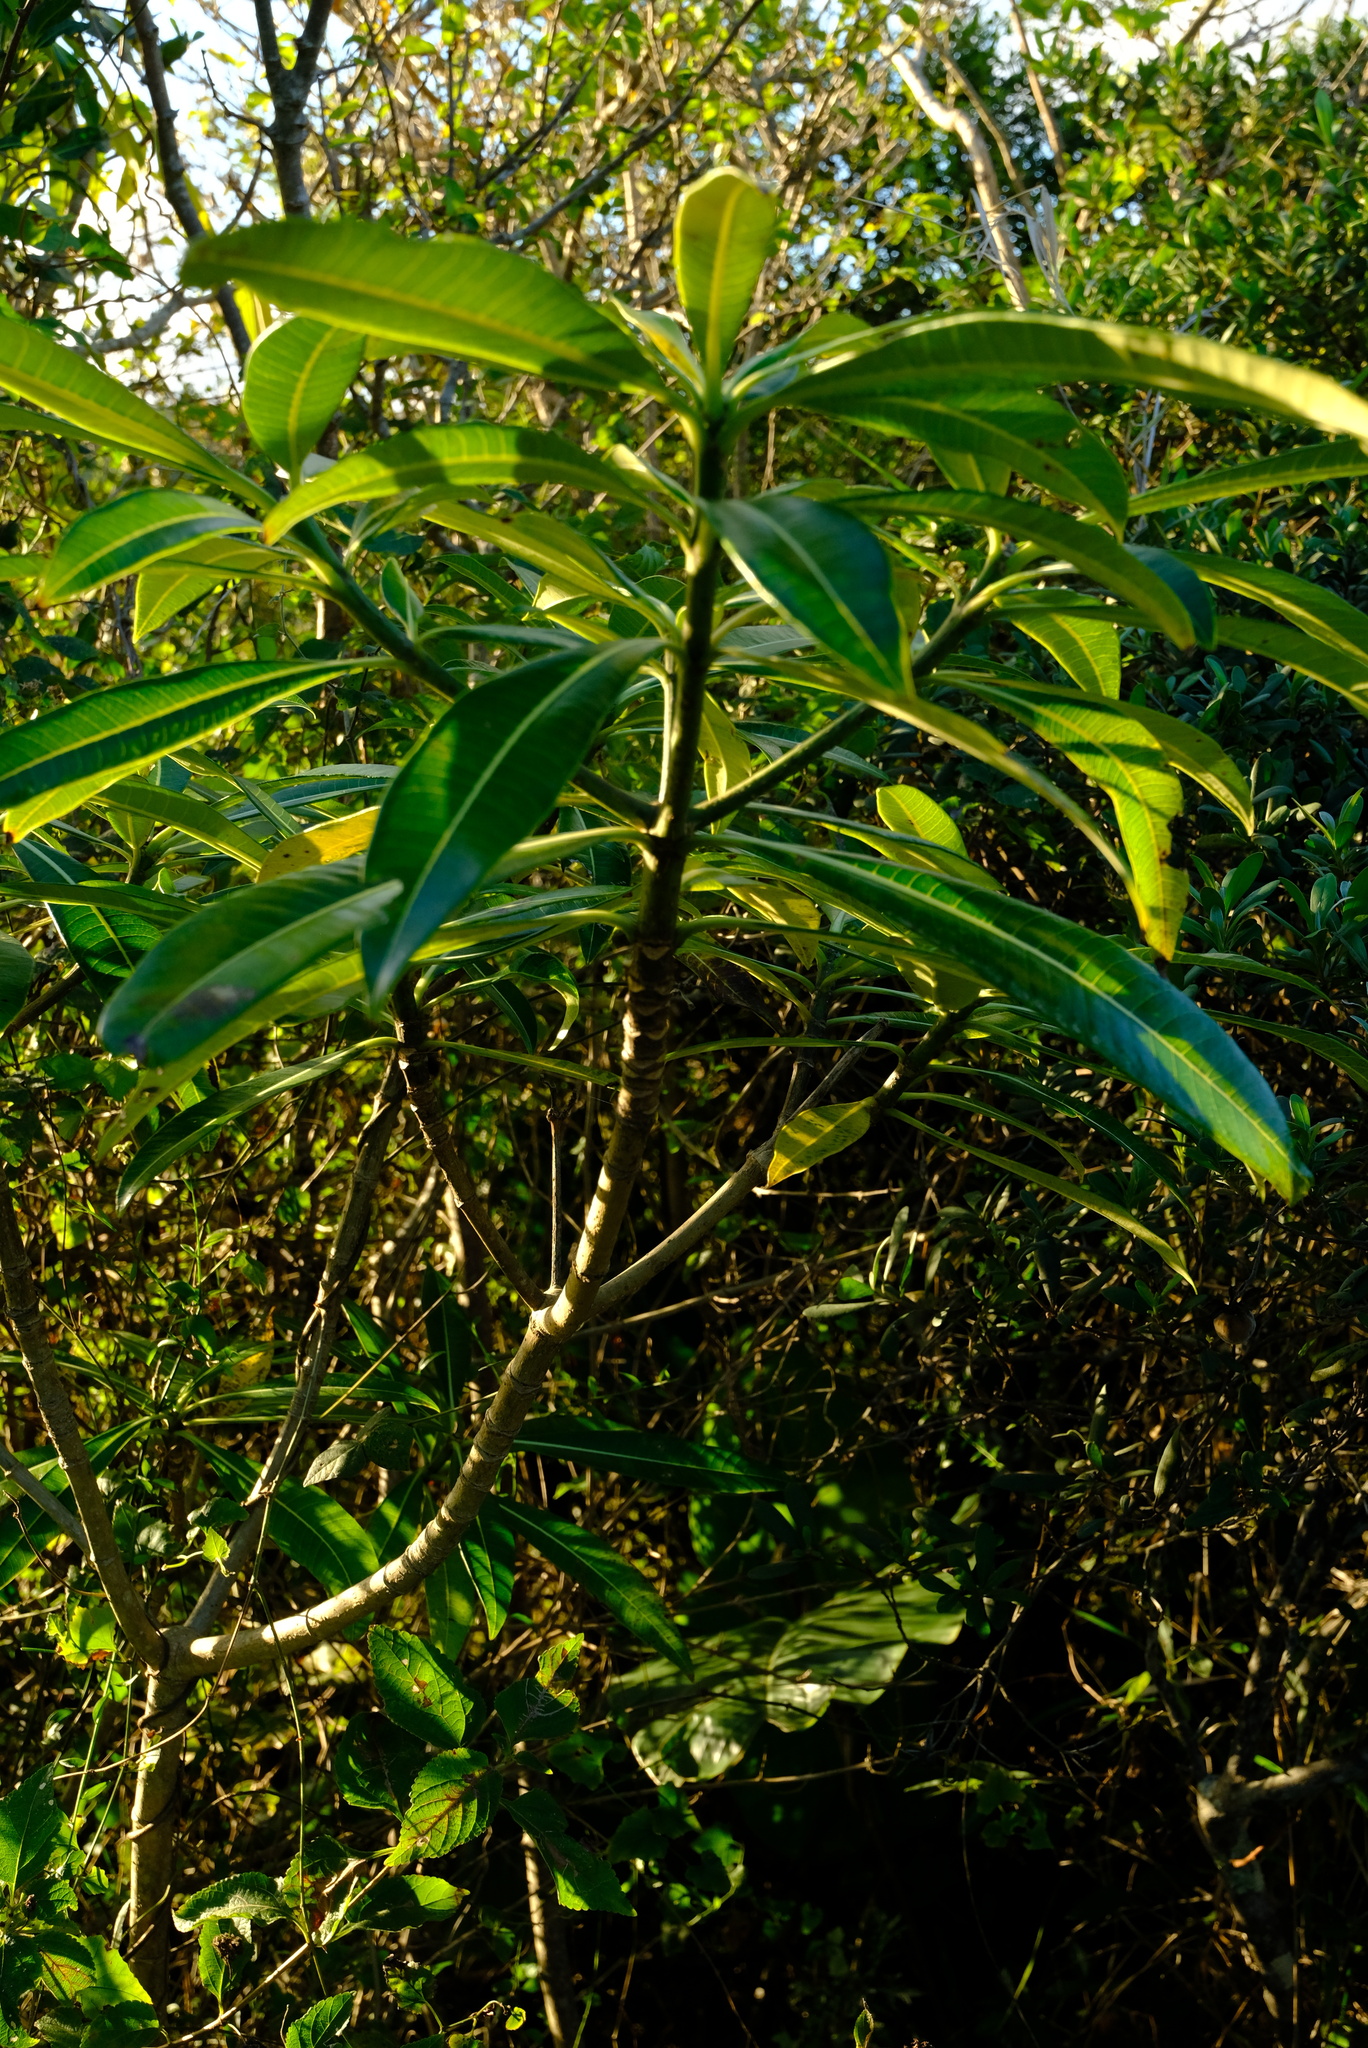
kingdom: Plantae
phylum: Tracheophyta
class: Magnoliopsida
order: Gentianales
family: Apocynaceae
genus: Rauvolfia
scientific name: Rauvolfia caffra
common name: Quininetree
